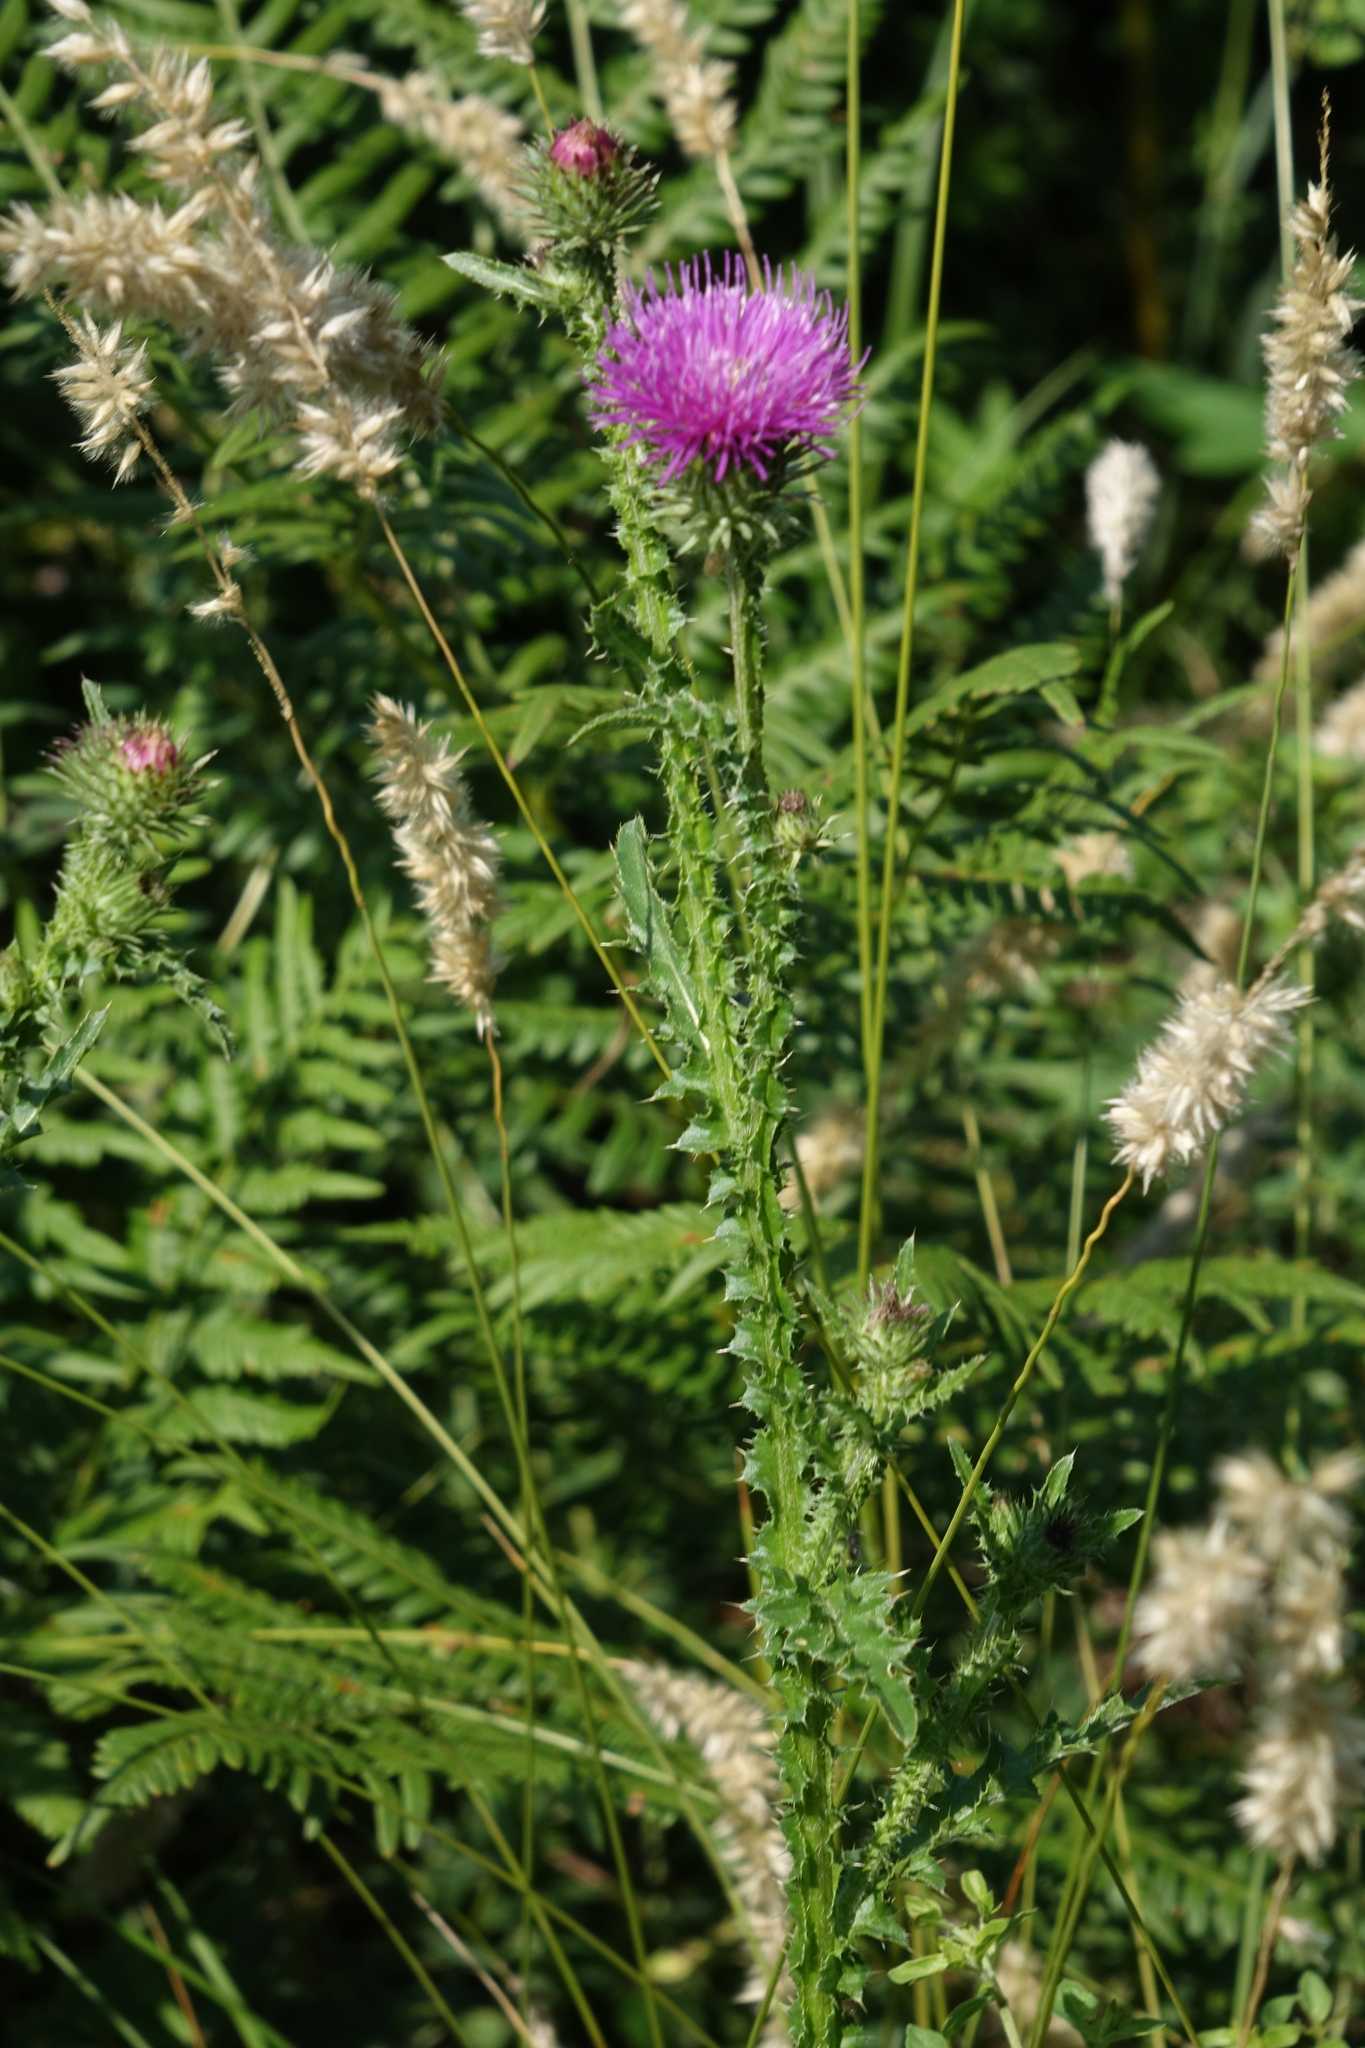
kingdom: Plantae
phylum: Tracheophyta
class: Magnoliopsida
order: Asterales
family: Asteraceae
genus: Carduus
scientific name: Carduus acanthoides
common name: Plumeless thistle
